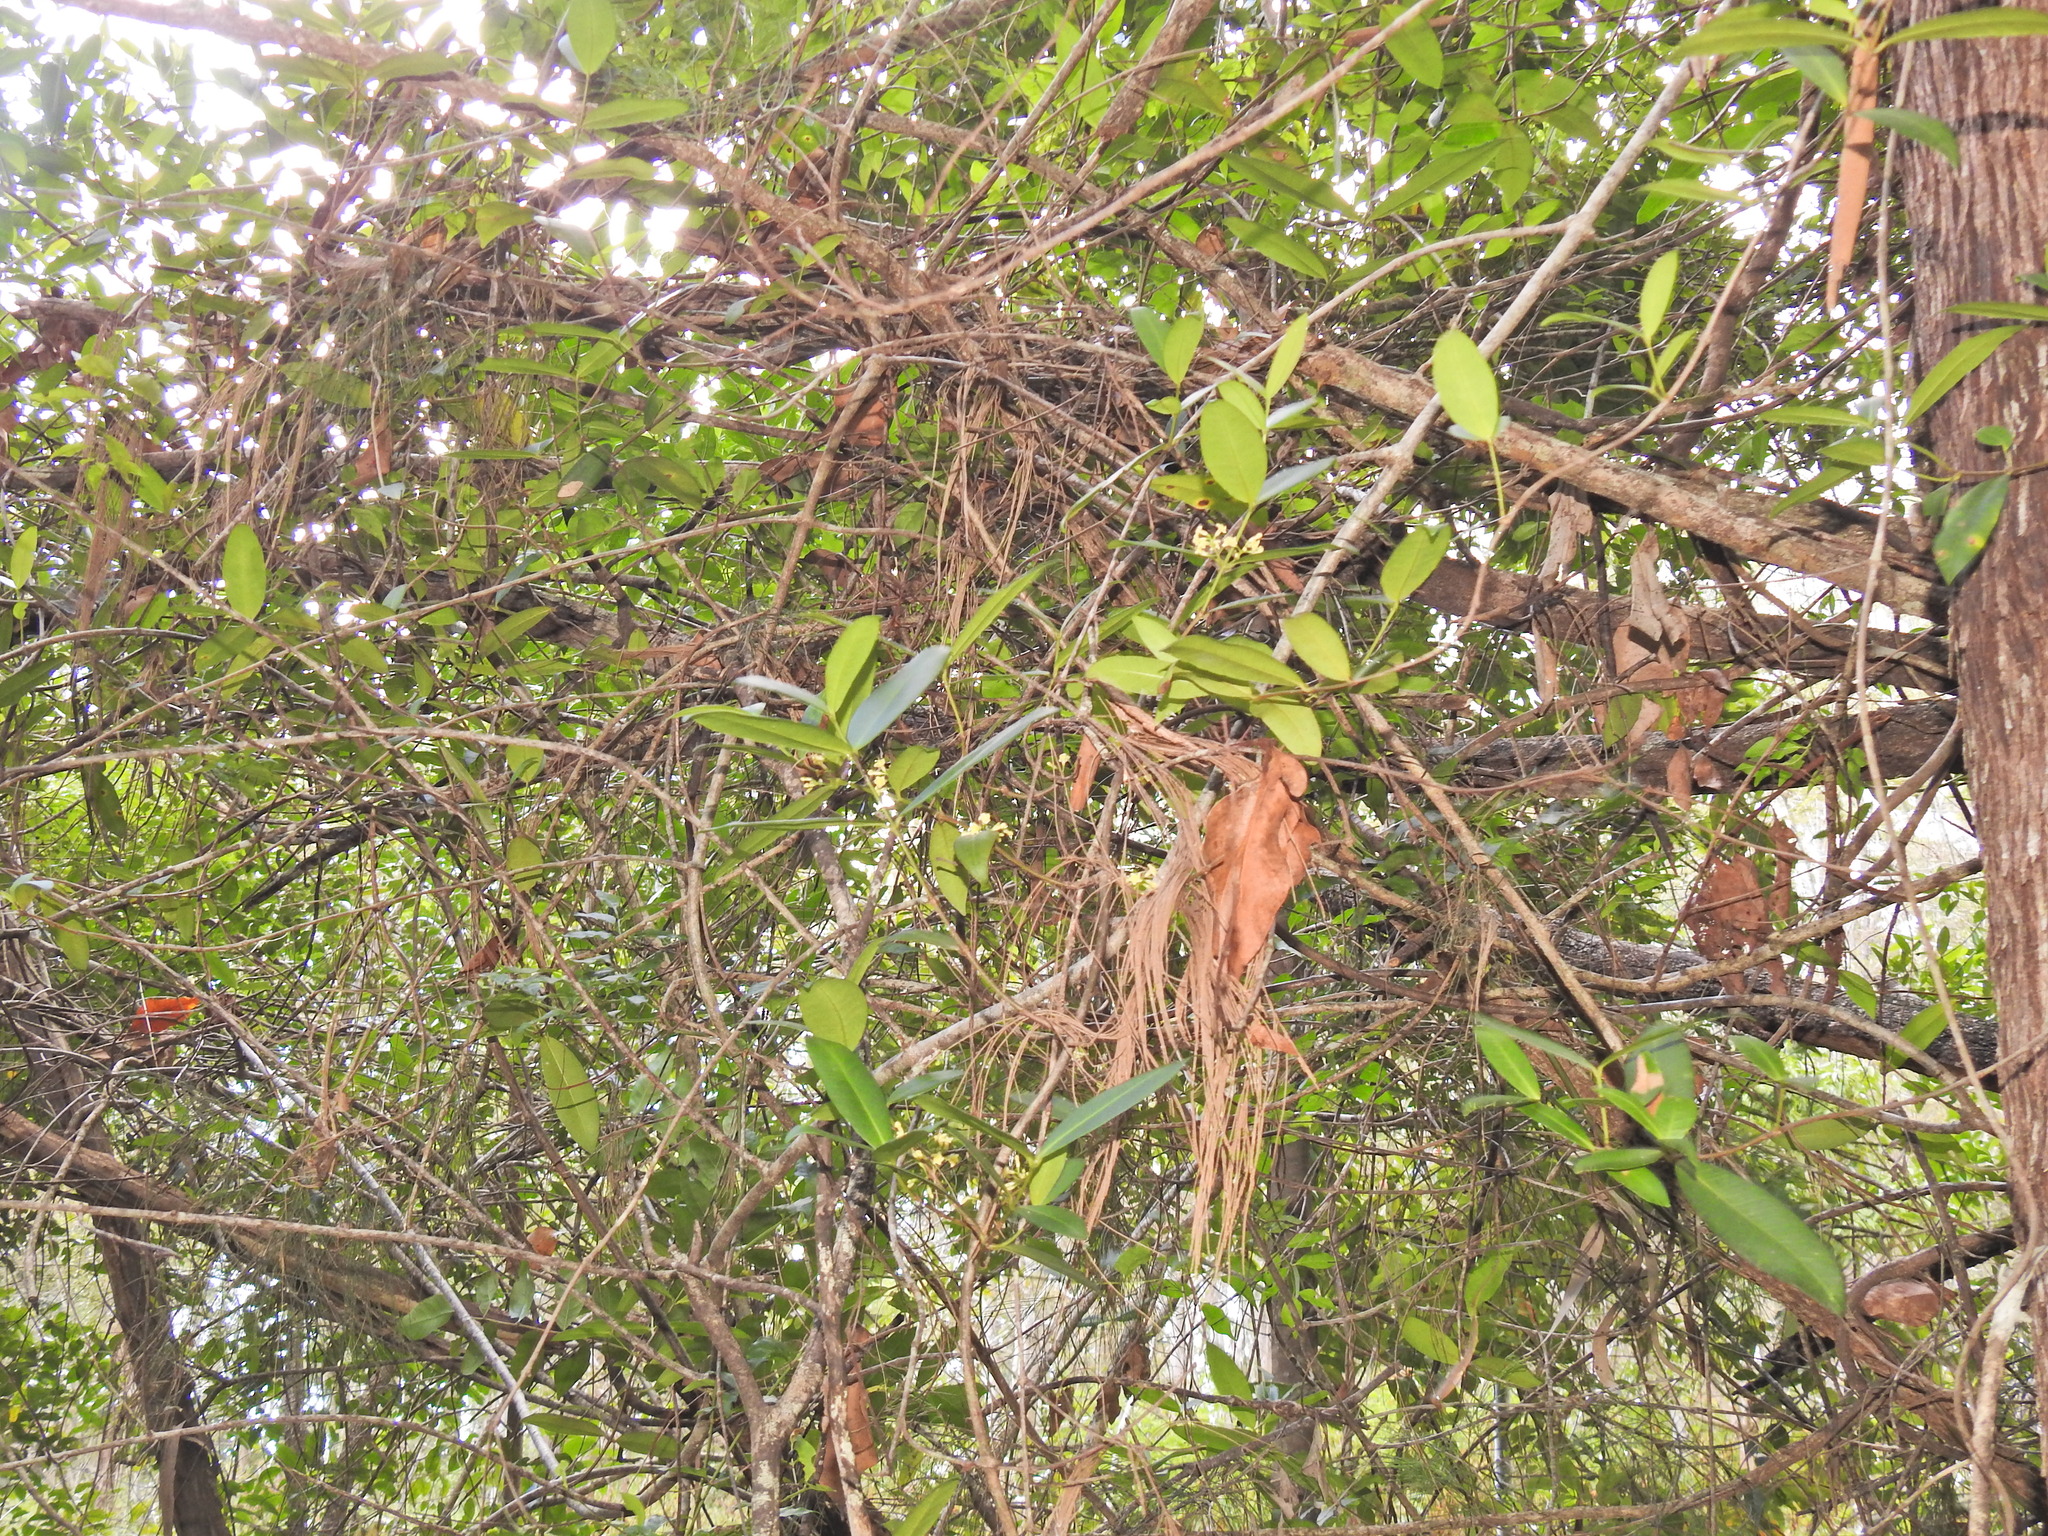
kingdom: Plantae
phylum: Tracheophyta
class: Magnoliopsida
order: Gentianales
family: Apocynaceae
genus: Melodinus
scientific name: Melodinus australis
